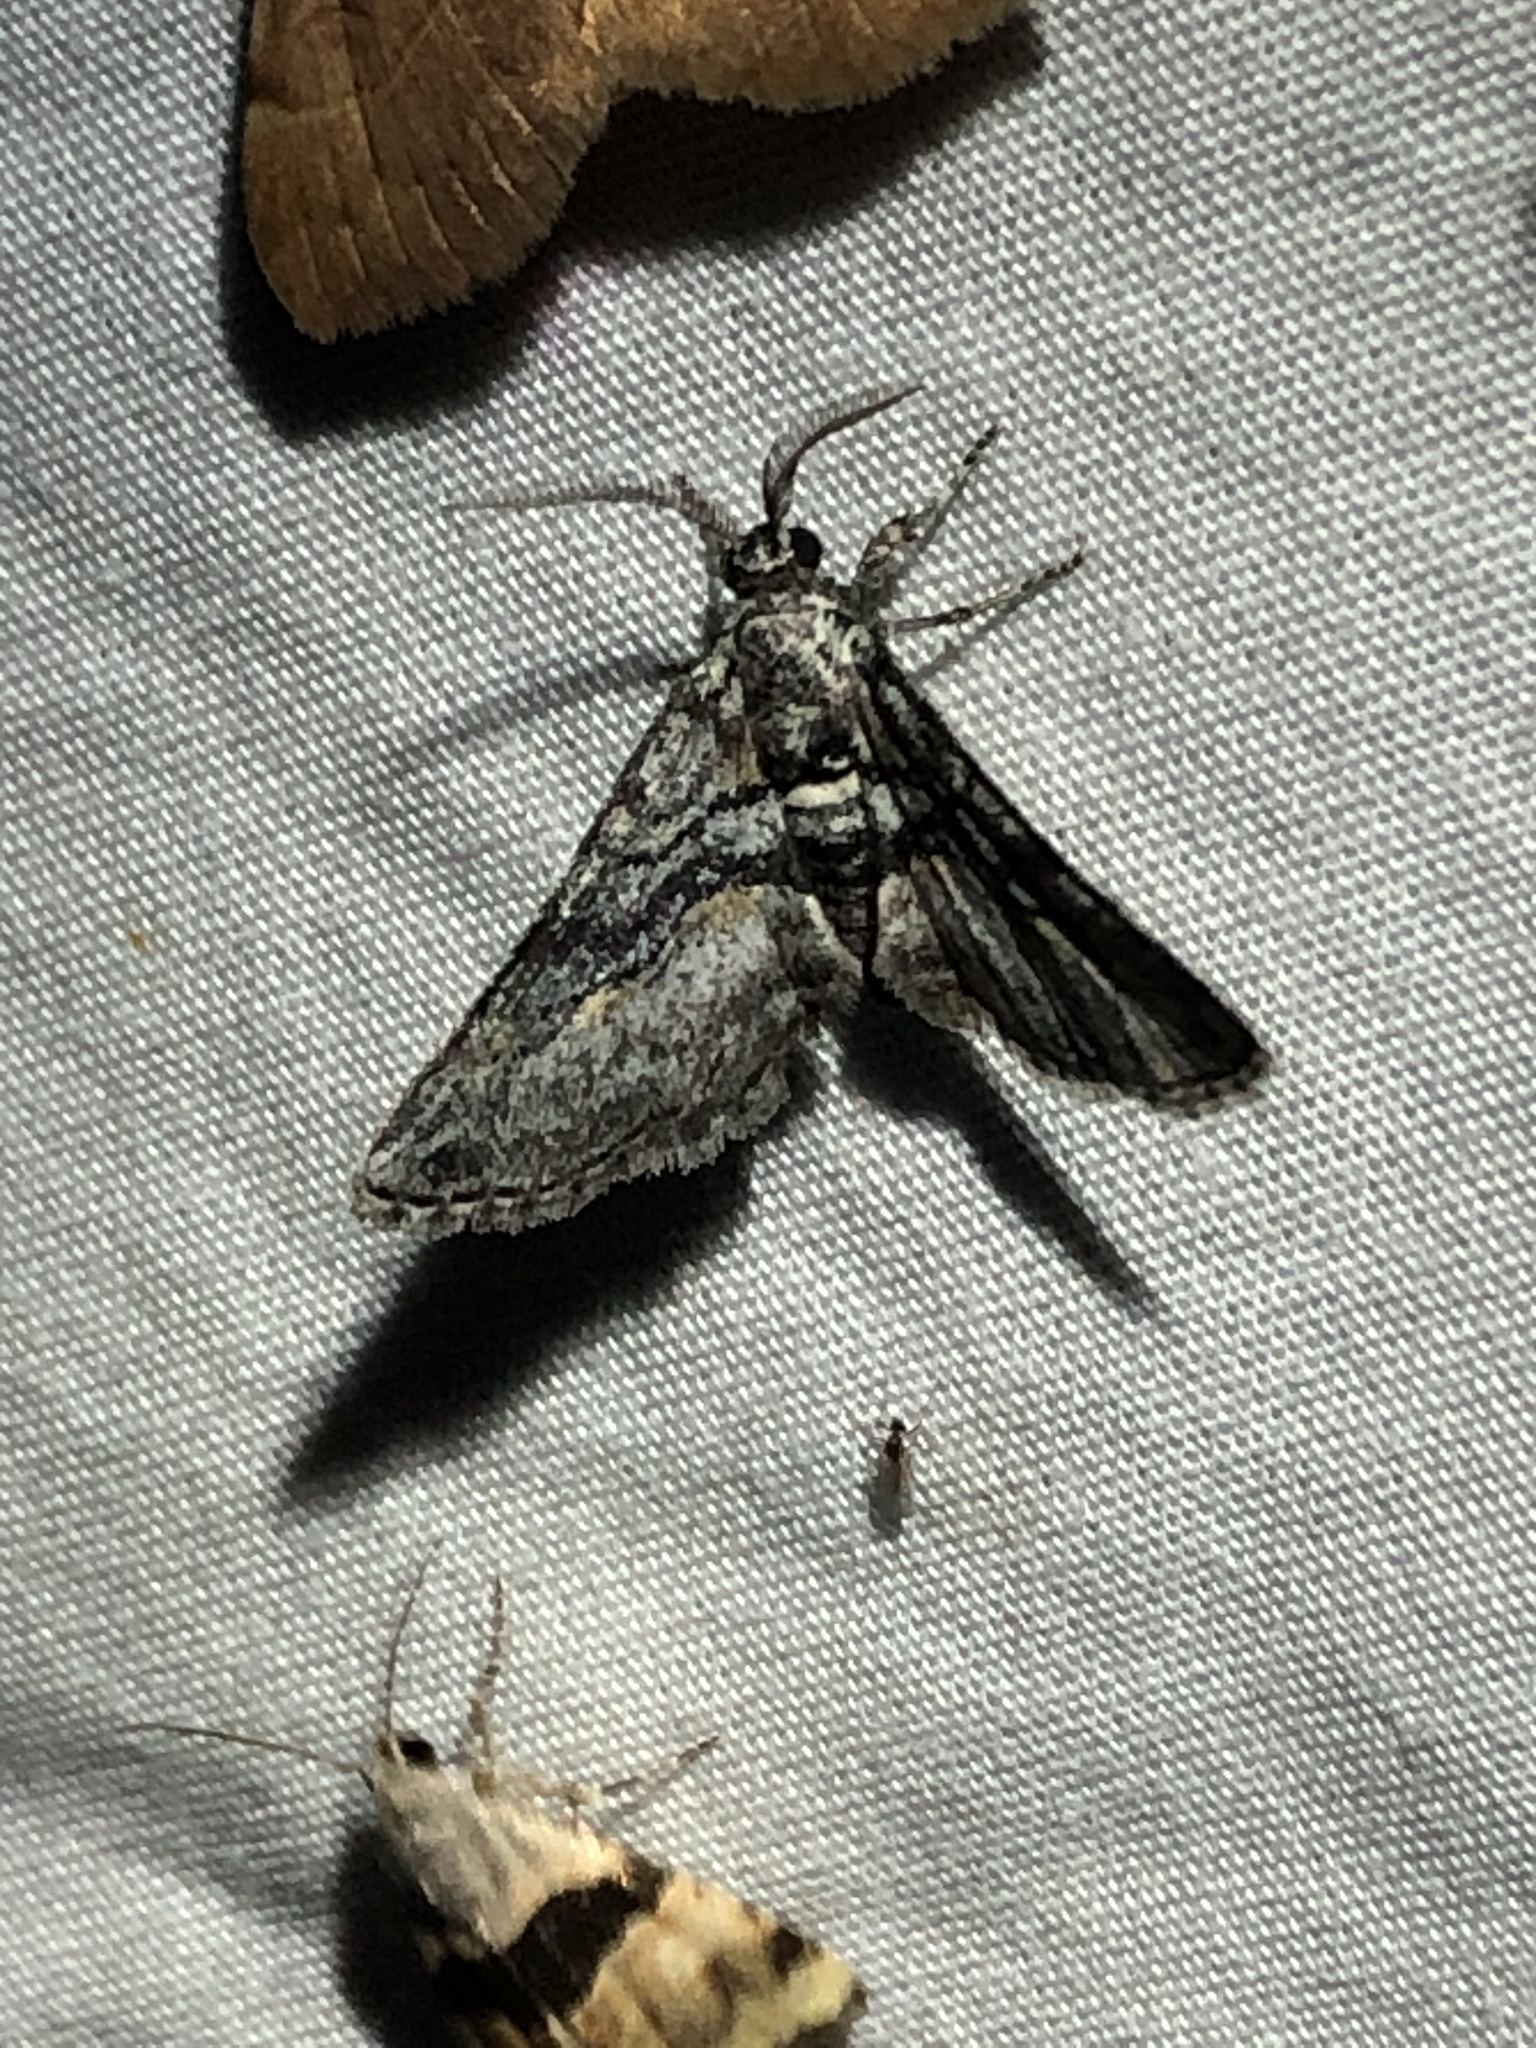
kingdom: Animalia
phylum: Arthropoda
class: Insecta
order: Lepidoptera
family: Geometridae
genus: Eubarnesia
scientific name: Eubarnesia ritaria
